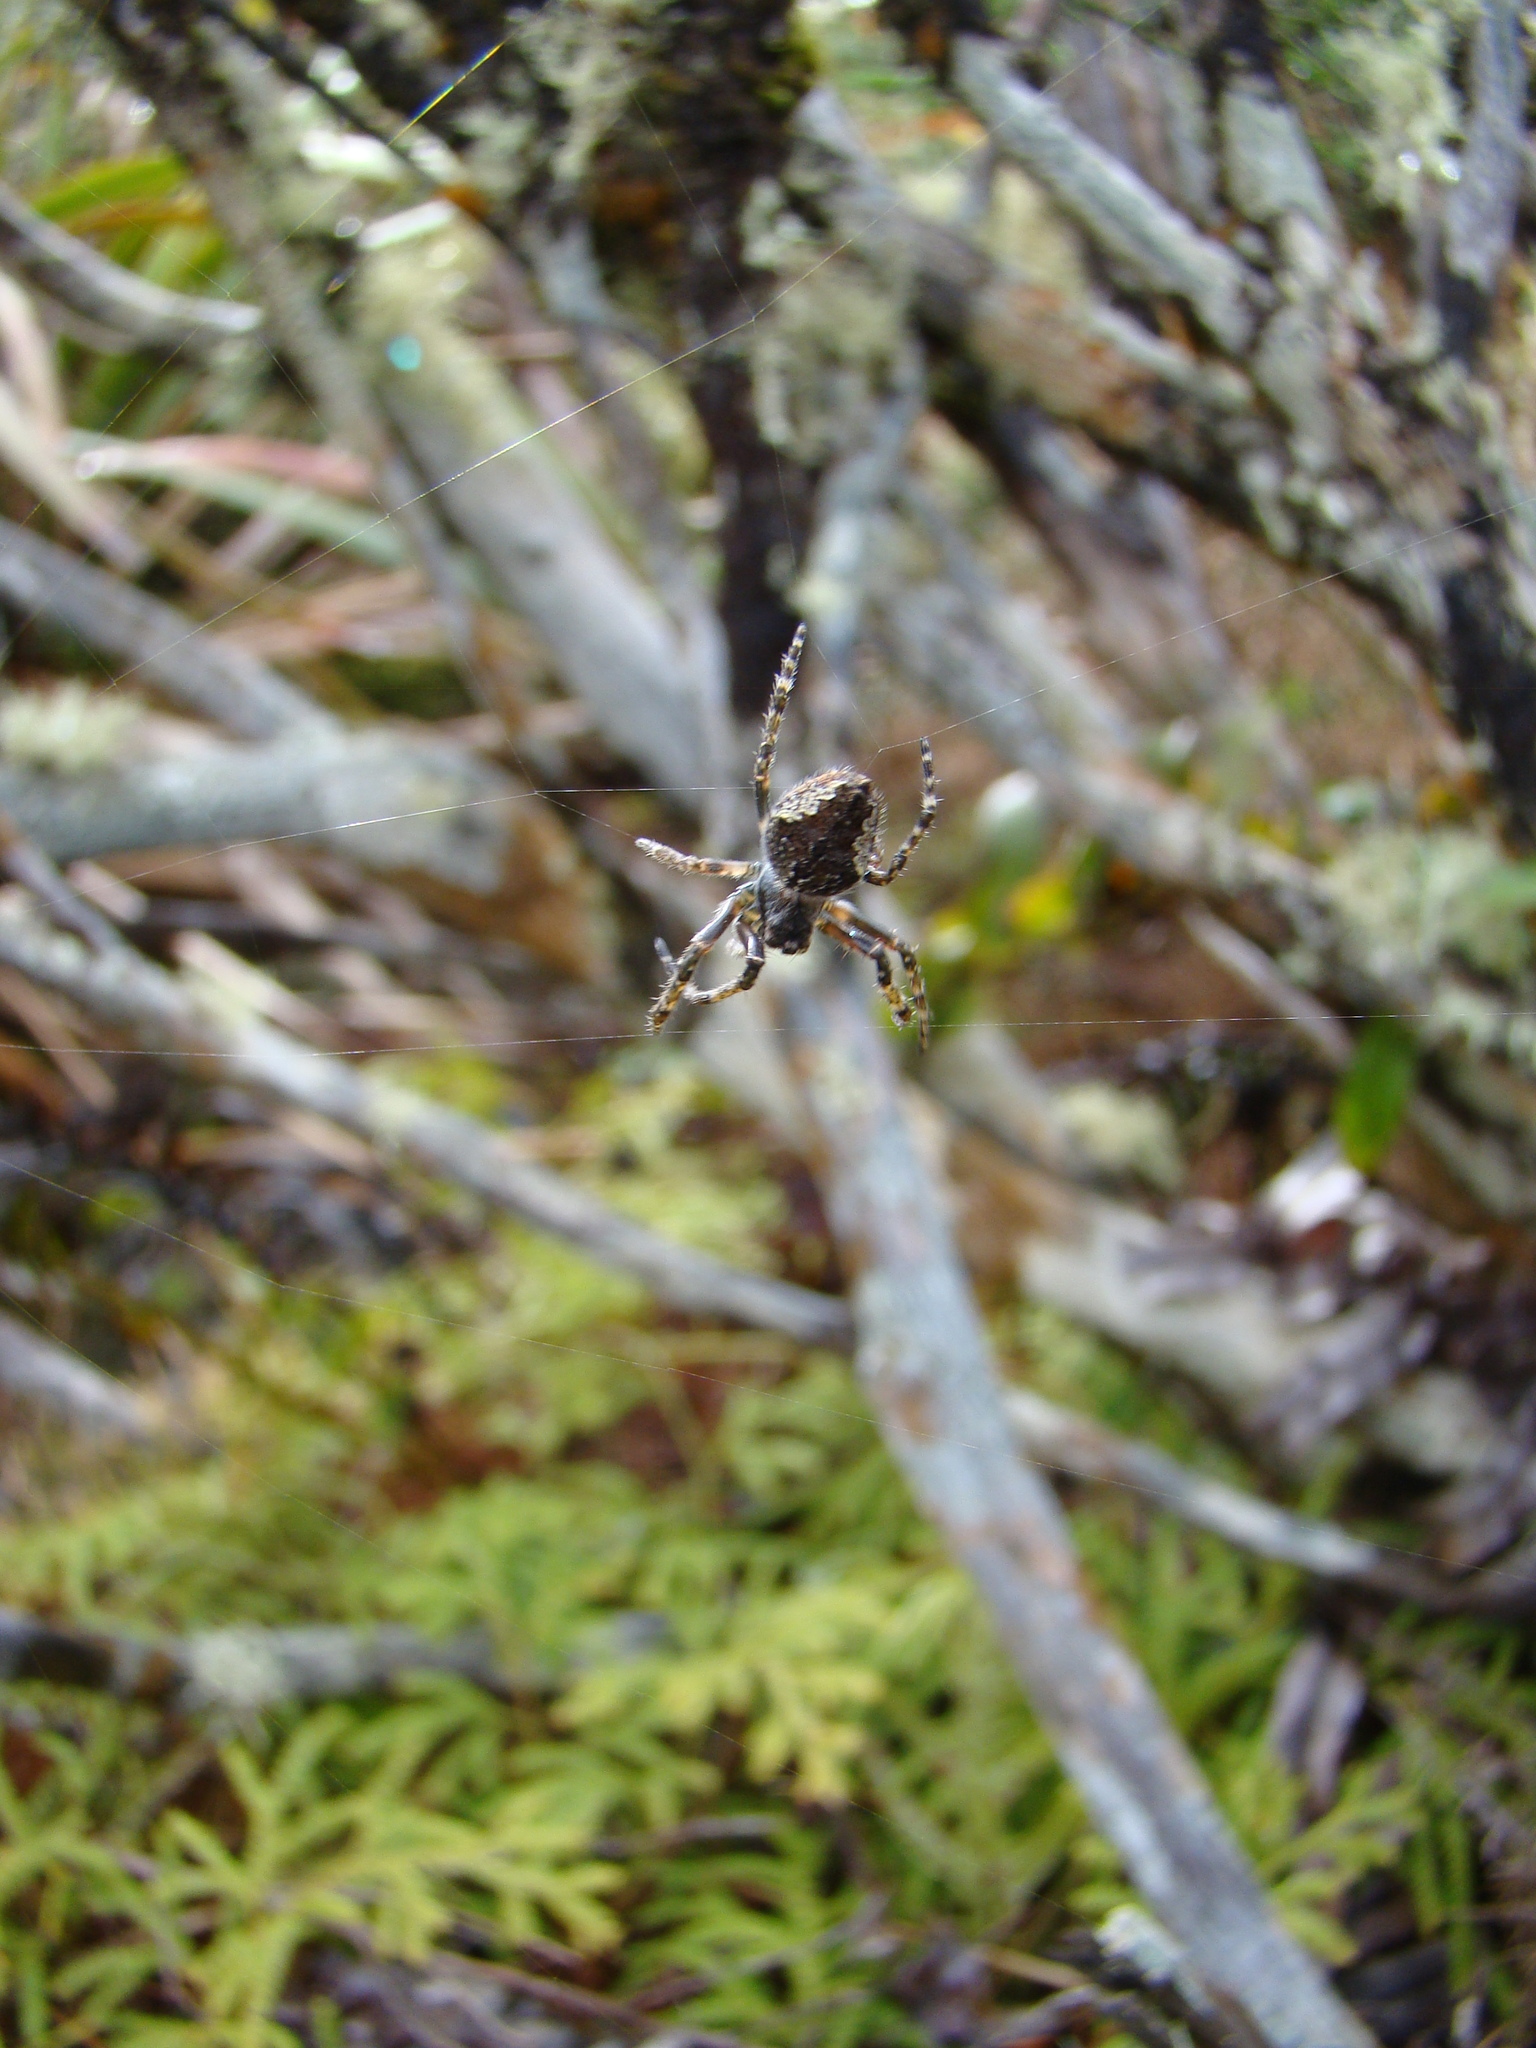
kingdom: Animalia
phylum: Arthropoda
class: Arachnida
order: Araneae
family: Araneidae
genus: Eriophora
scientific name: Eriophora pustulosa
